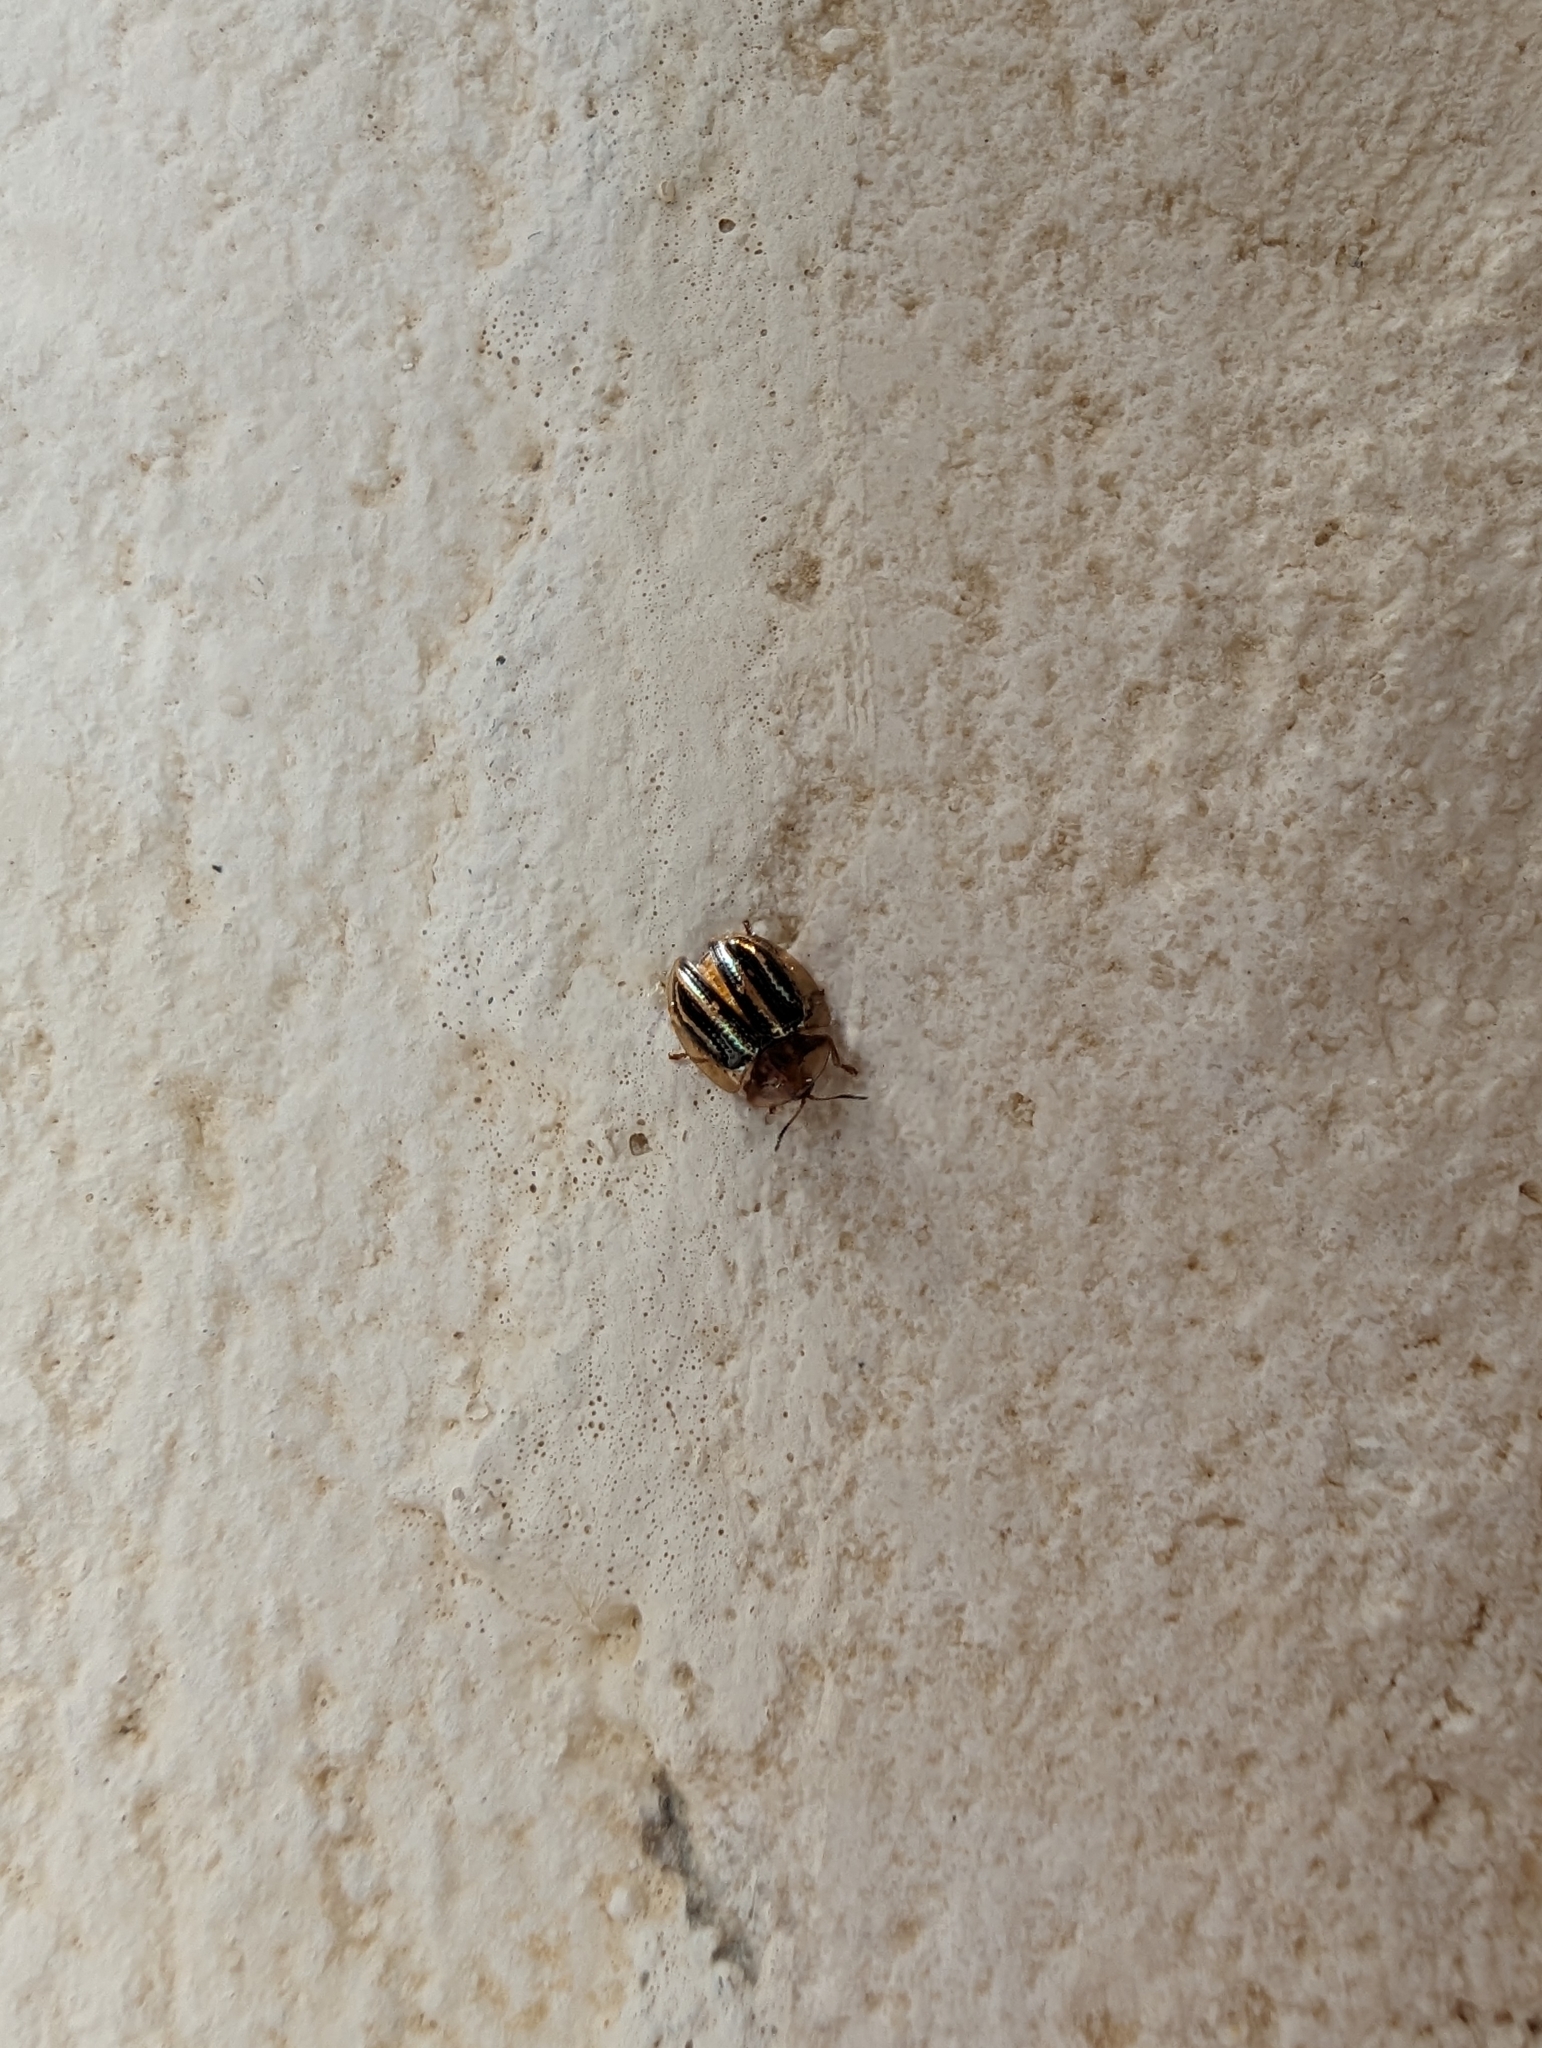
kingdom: Animalia
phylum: Arthropoda
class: Insecta
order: Coleoptera
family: Chrysomelidae
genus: Agroiconota
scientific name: Agroiconota propinqua
